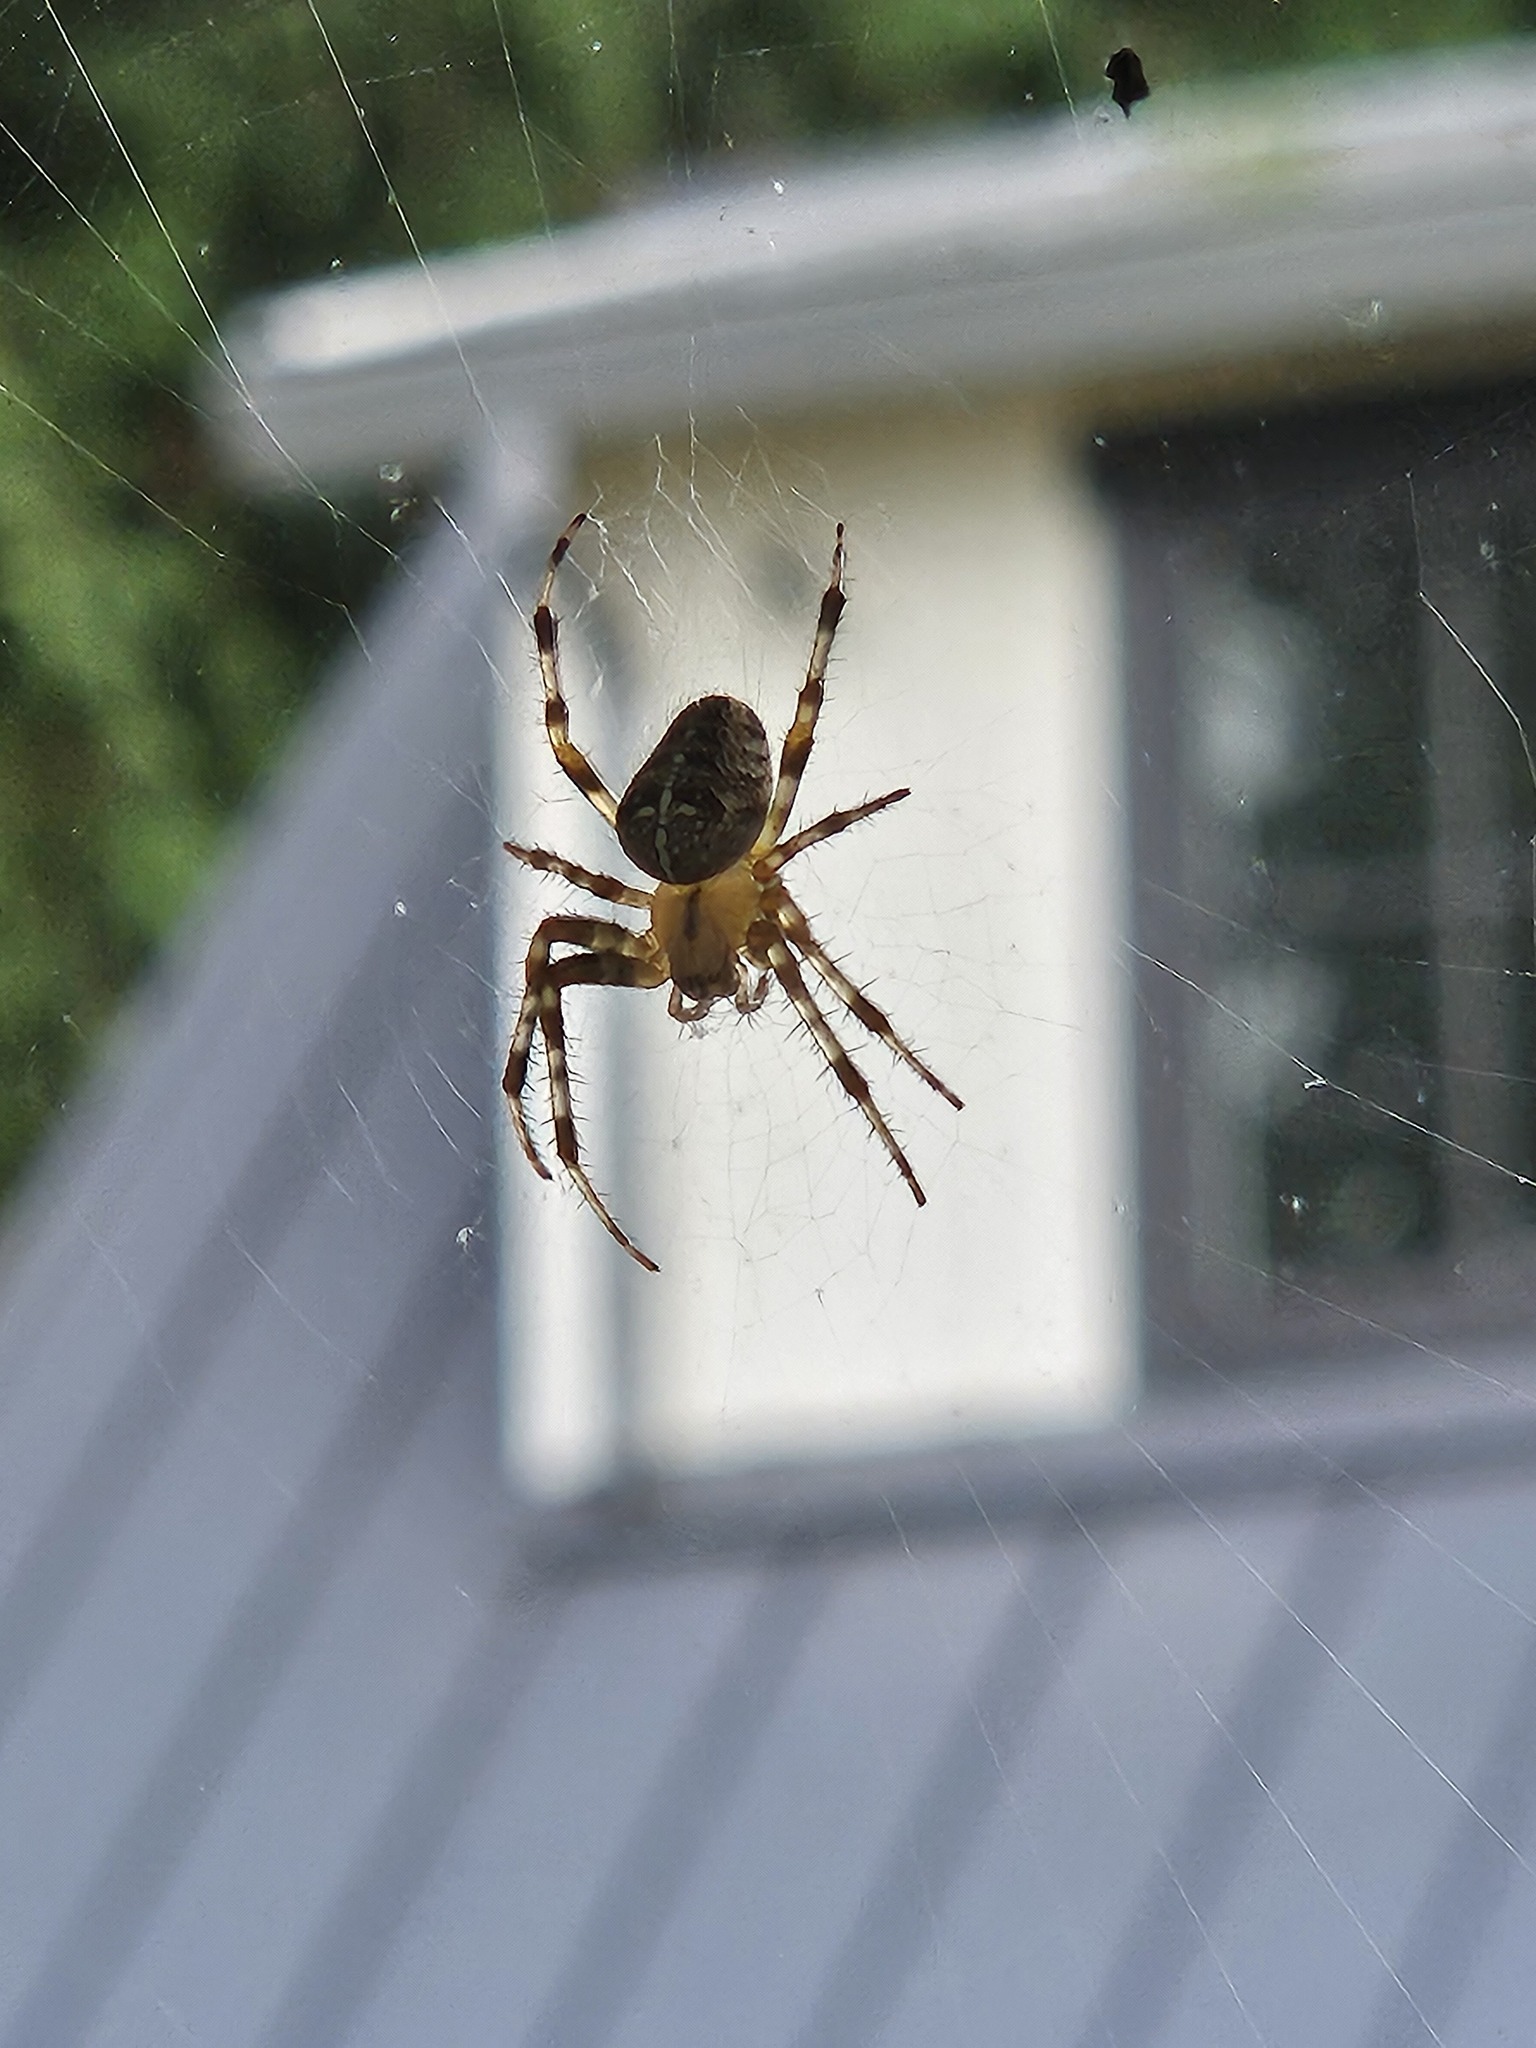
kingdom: Animalia
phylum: Arthropoda
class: Arachnida
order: Araneae
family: Araneidae
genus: Araneus
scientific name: Araneus diadematus
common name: Cross orbweaver
